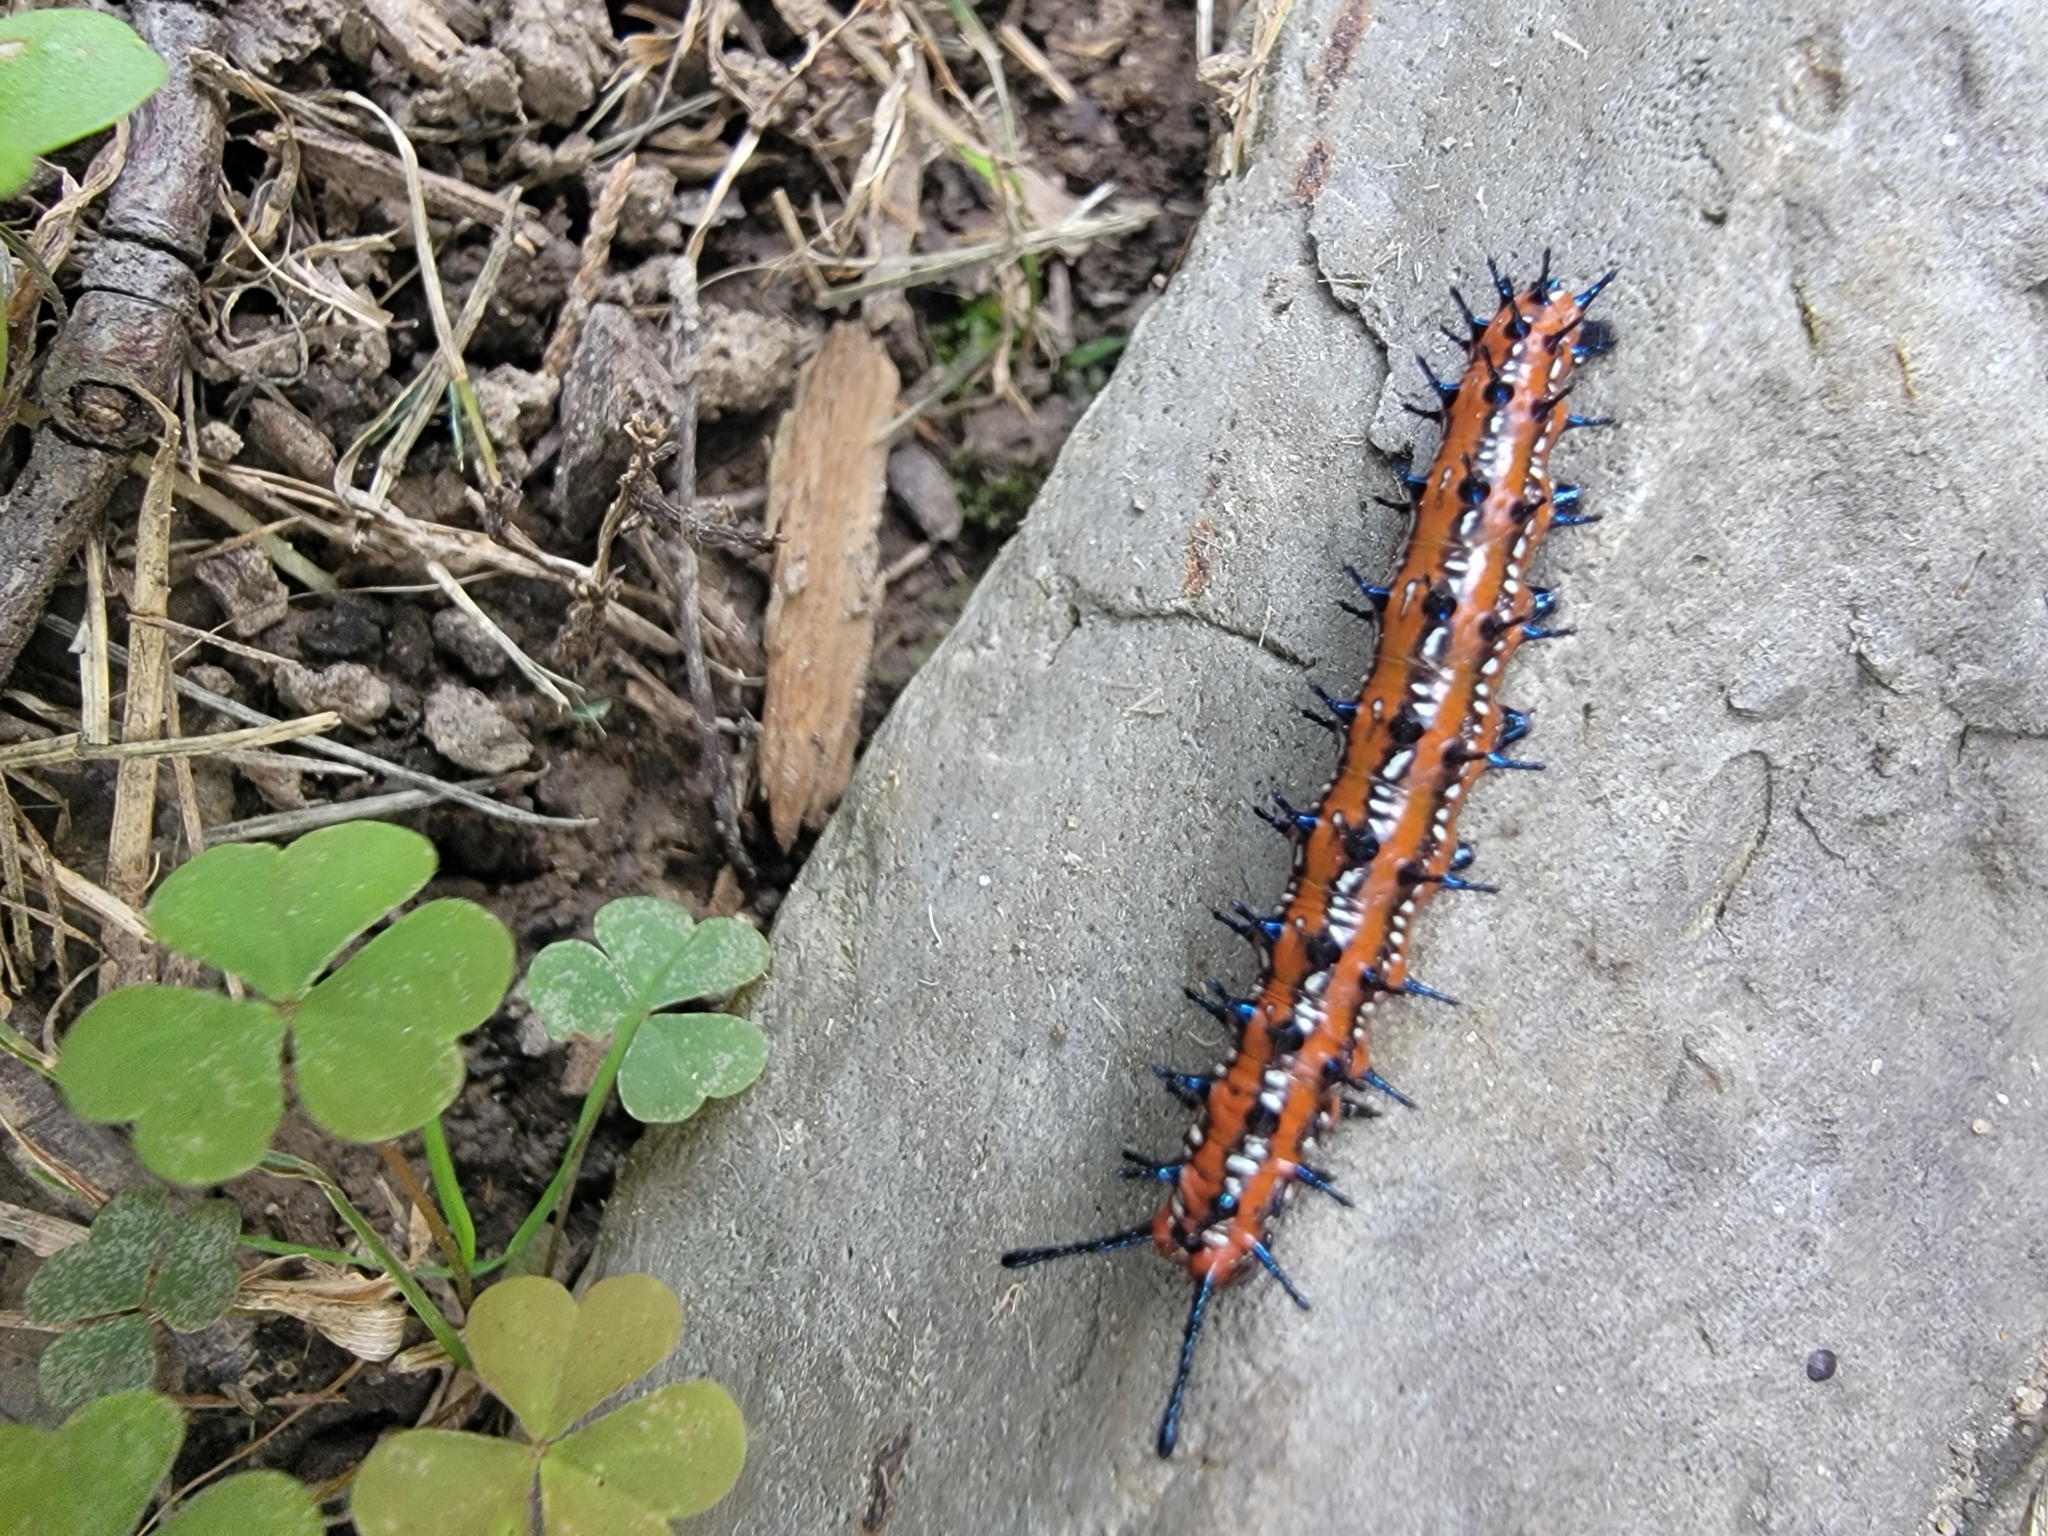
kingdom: Animalia
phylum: Arthropoda
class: Insecta
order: Lepidoptera
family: Nymphalidae
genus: Euptoieta
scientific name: Euptoieta claudia
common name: Variegated fritillary
